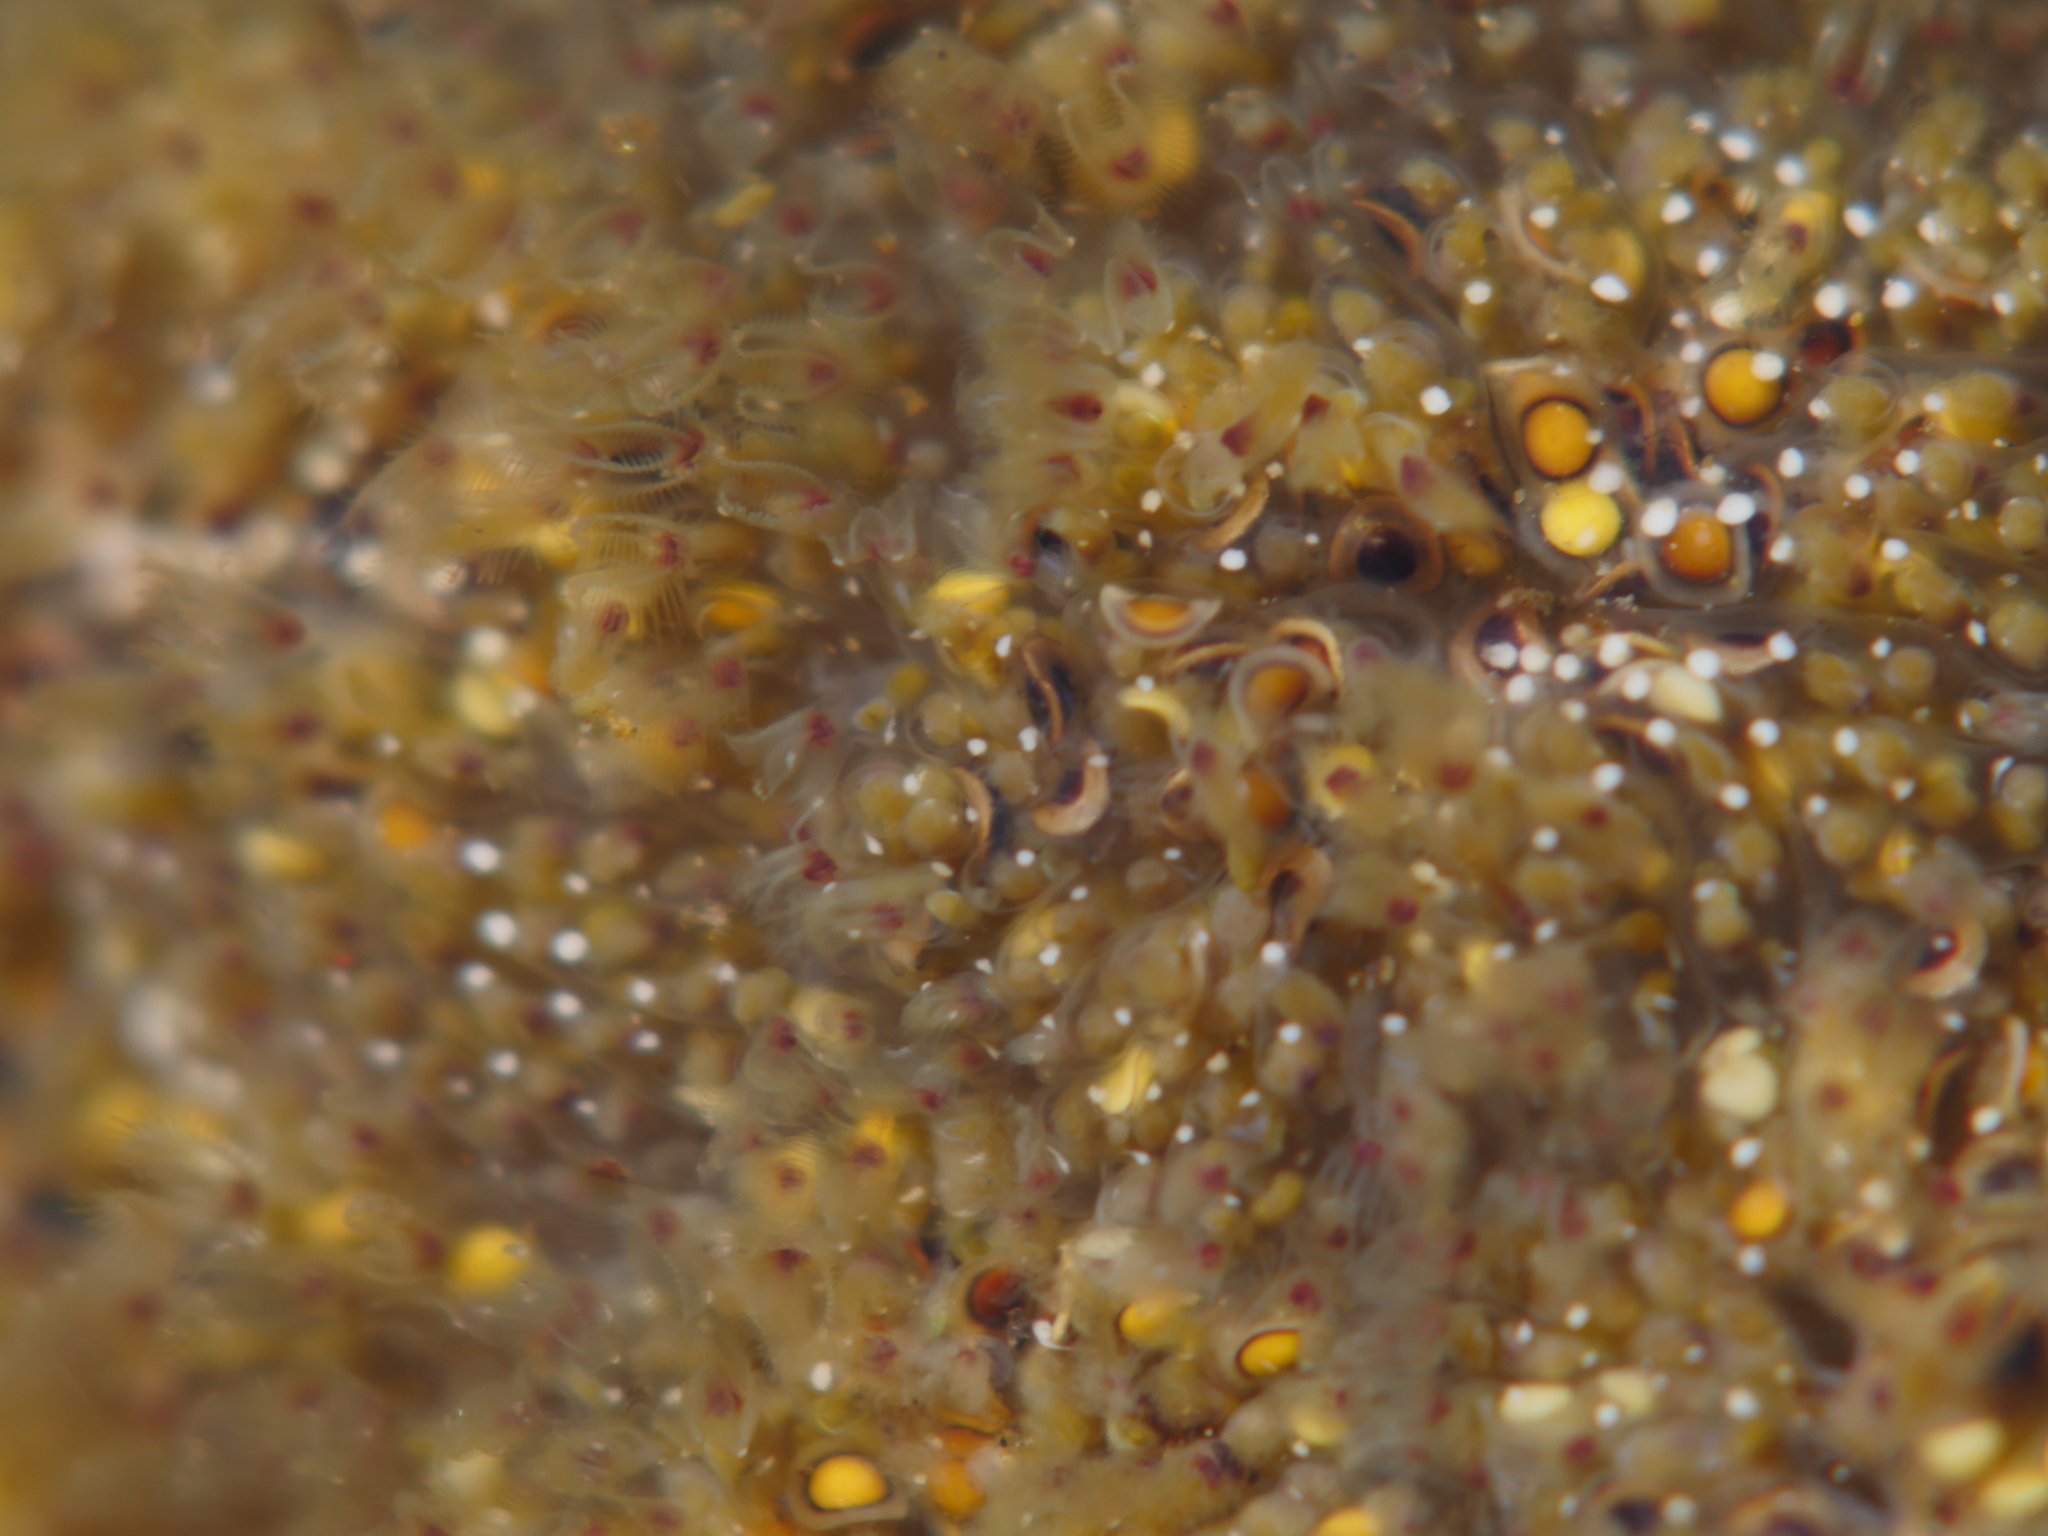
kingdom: Animalia
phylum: Bryozoa
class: Phylactolaemata
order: Plumatellida
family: Pectinatellidae
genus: Pectinatella
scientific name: Pectinatella magnifica
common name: Magnificent bryozoan
